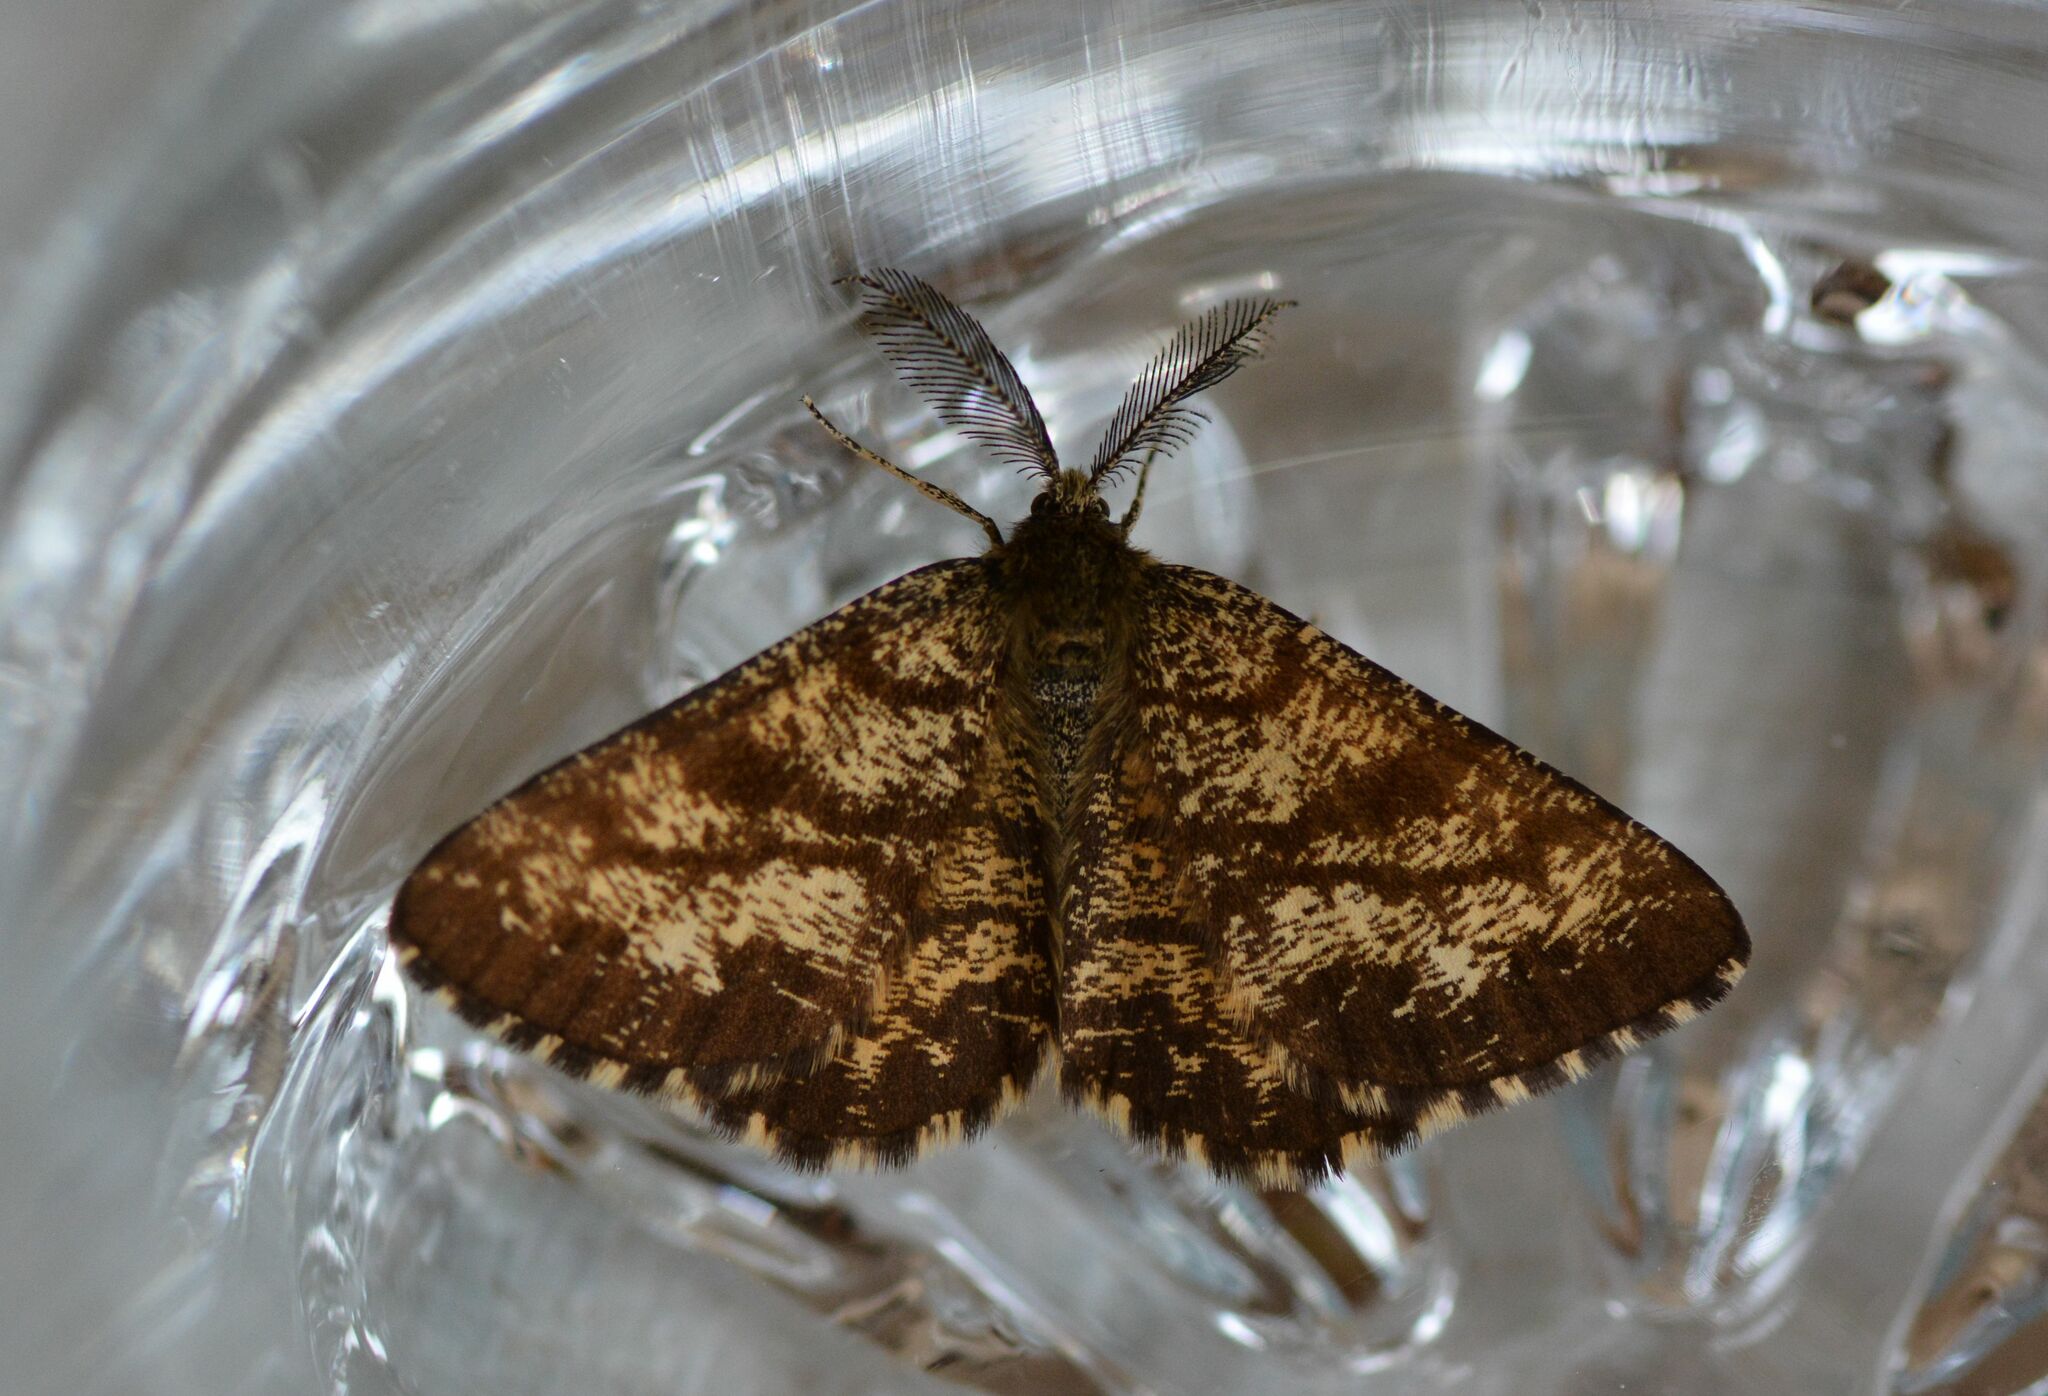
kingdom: Animalia
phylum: Arthropoda
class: Insecta
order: Lepidoptera
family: Geometridae
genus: Ematurga
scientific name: Ematurga atomaria
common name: Common heath
